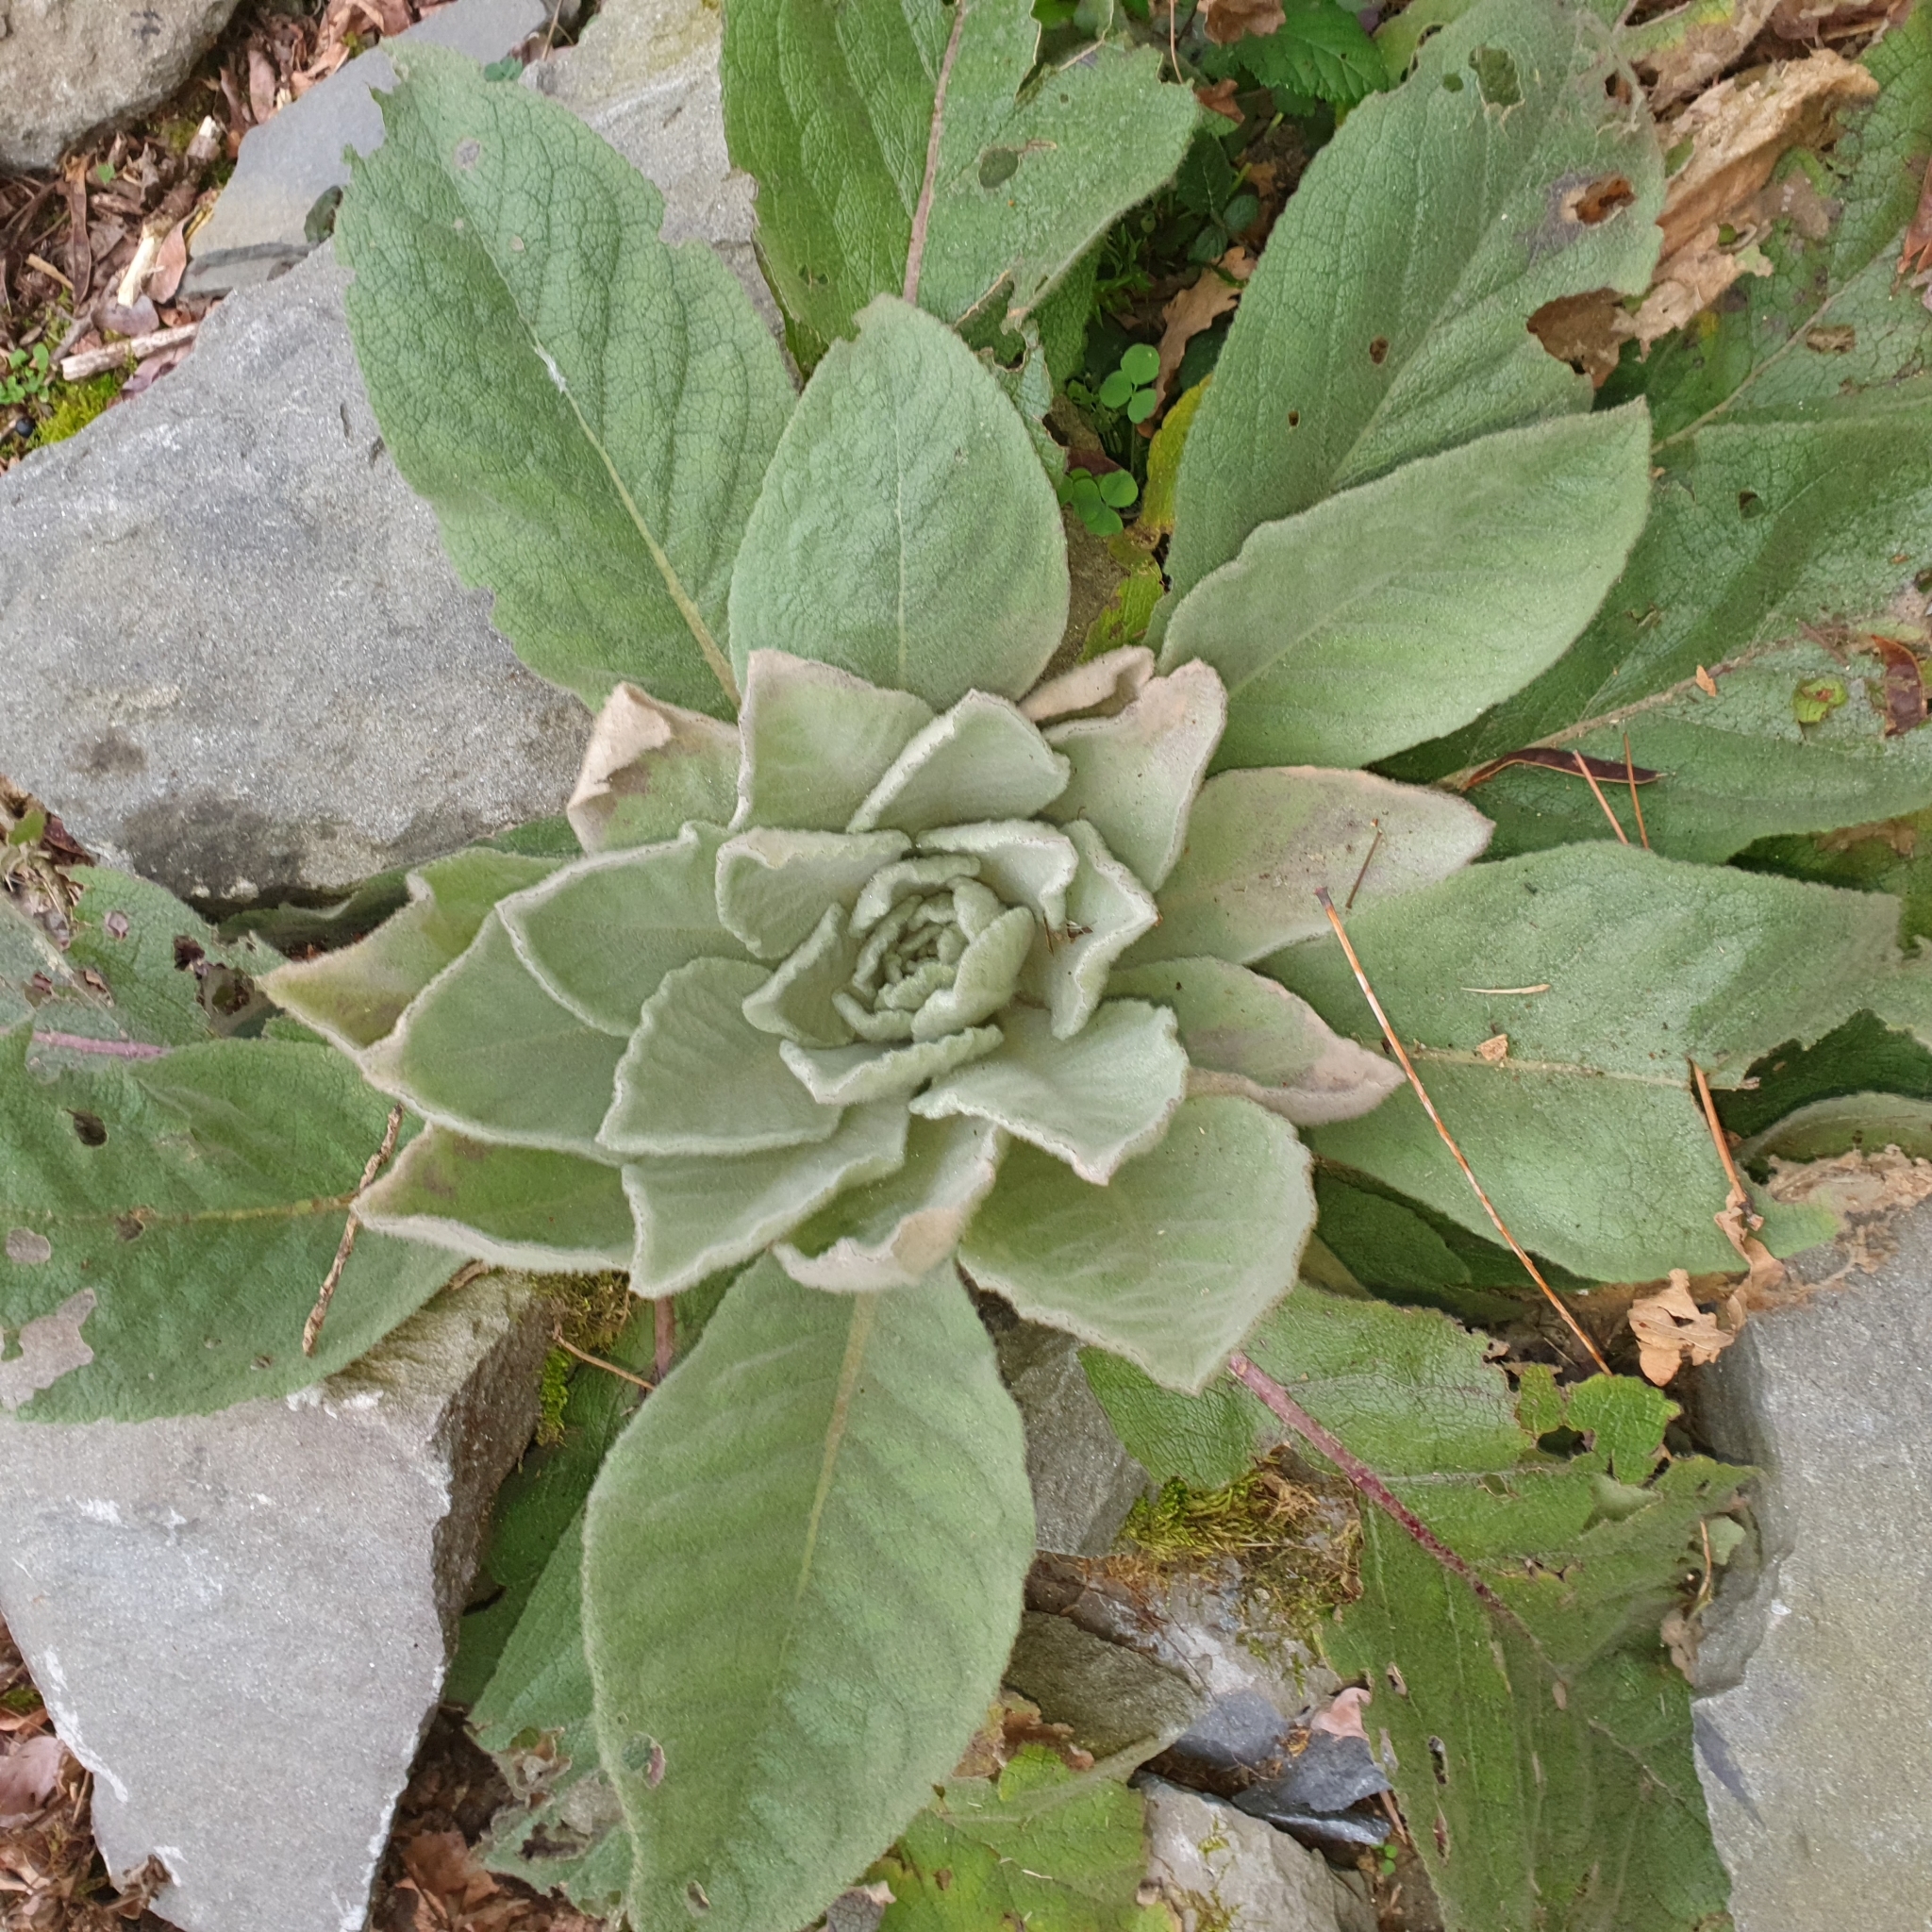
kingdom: Plantae
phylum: Tracheophyta
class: Magnoliopsida
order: Lamiales
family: Scrophulariaceae
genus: Verbascum
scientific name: Verbascum thapsus
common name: Common mullein
